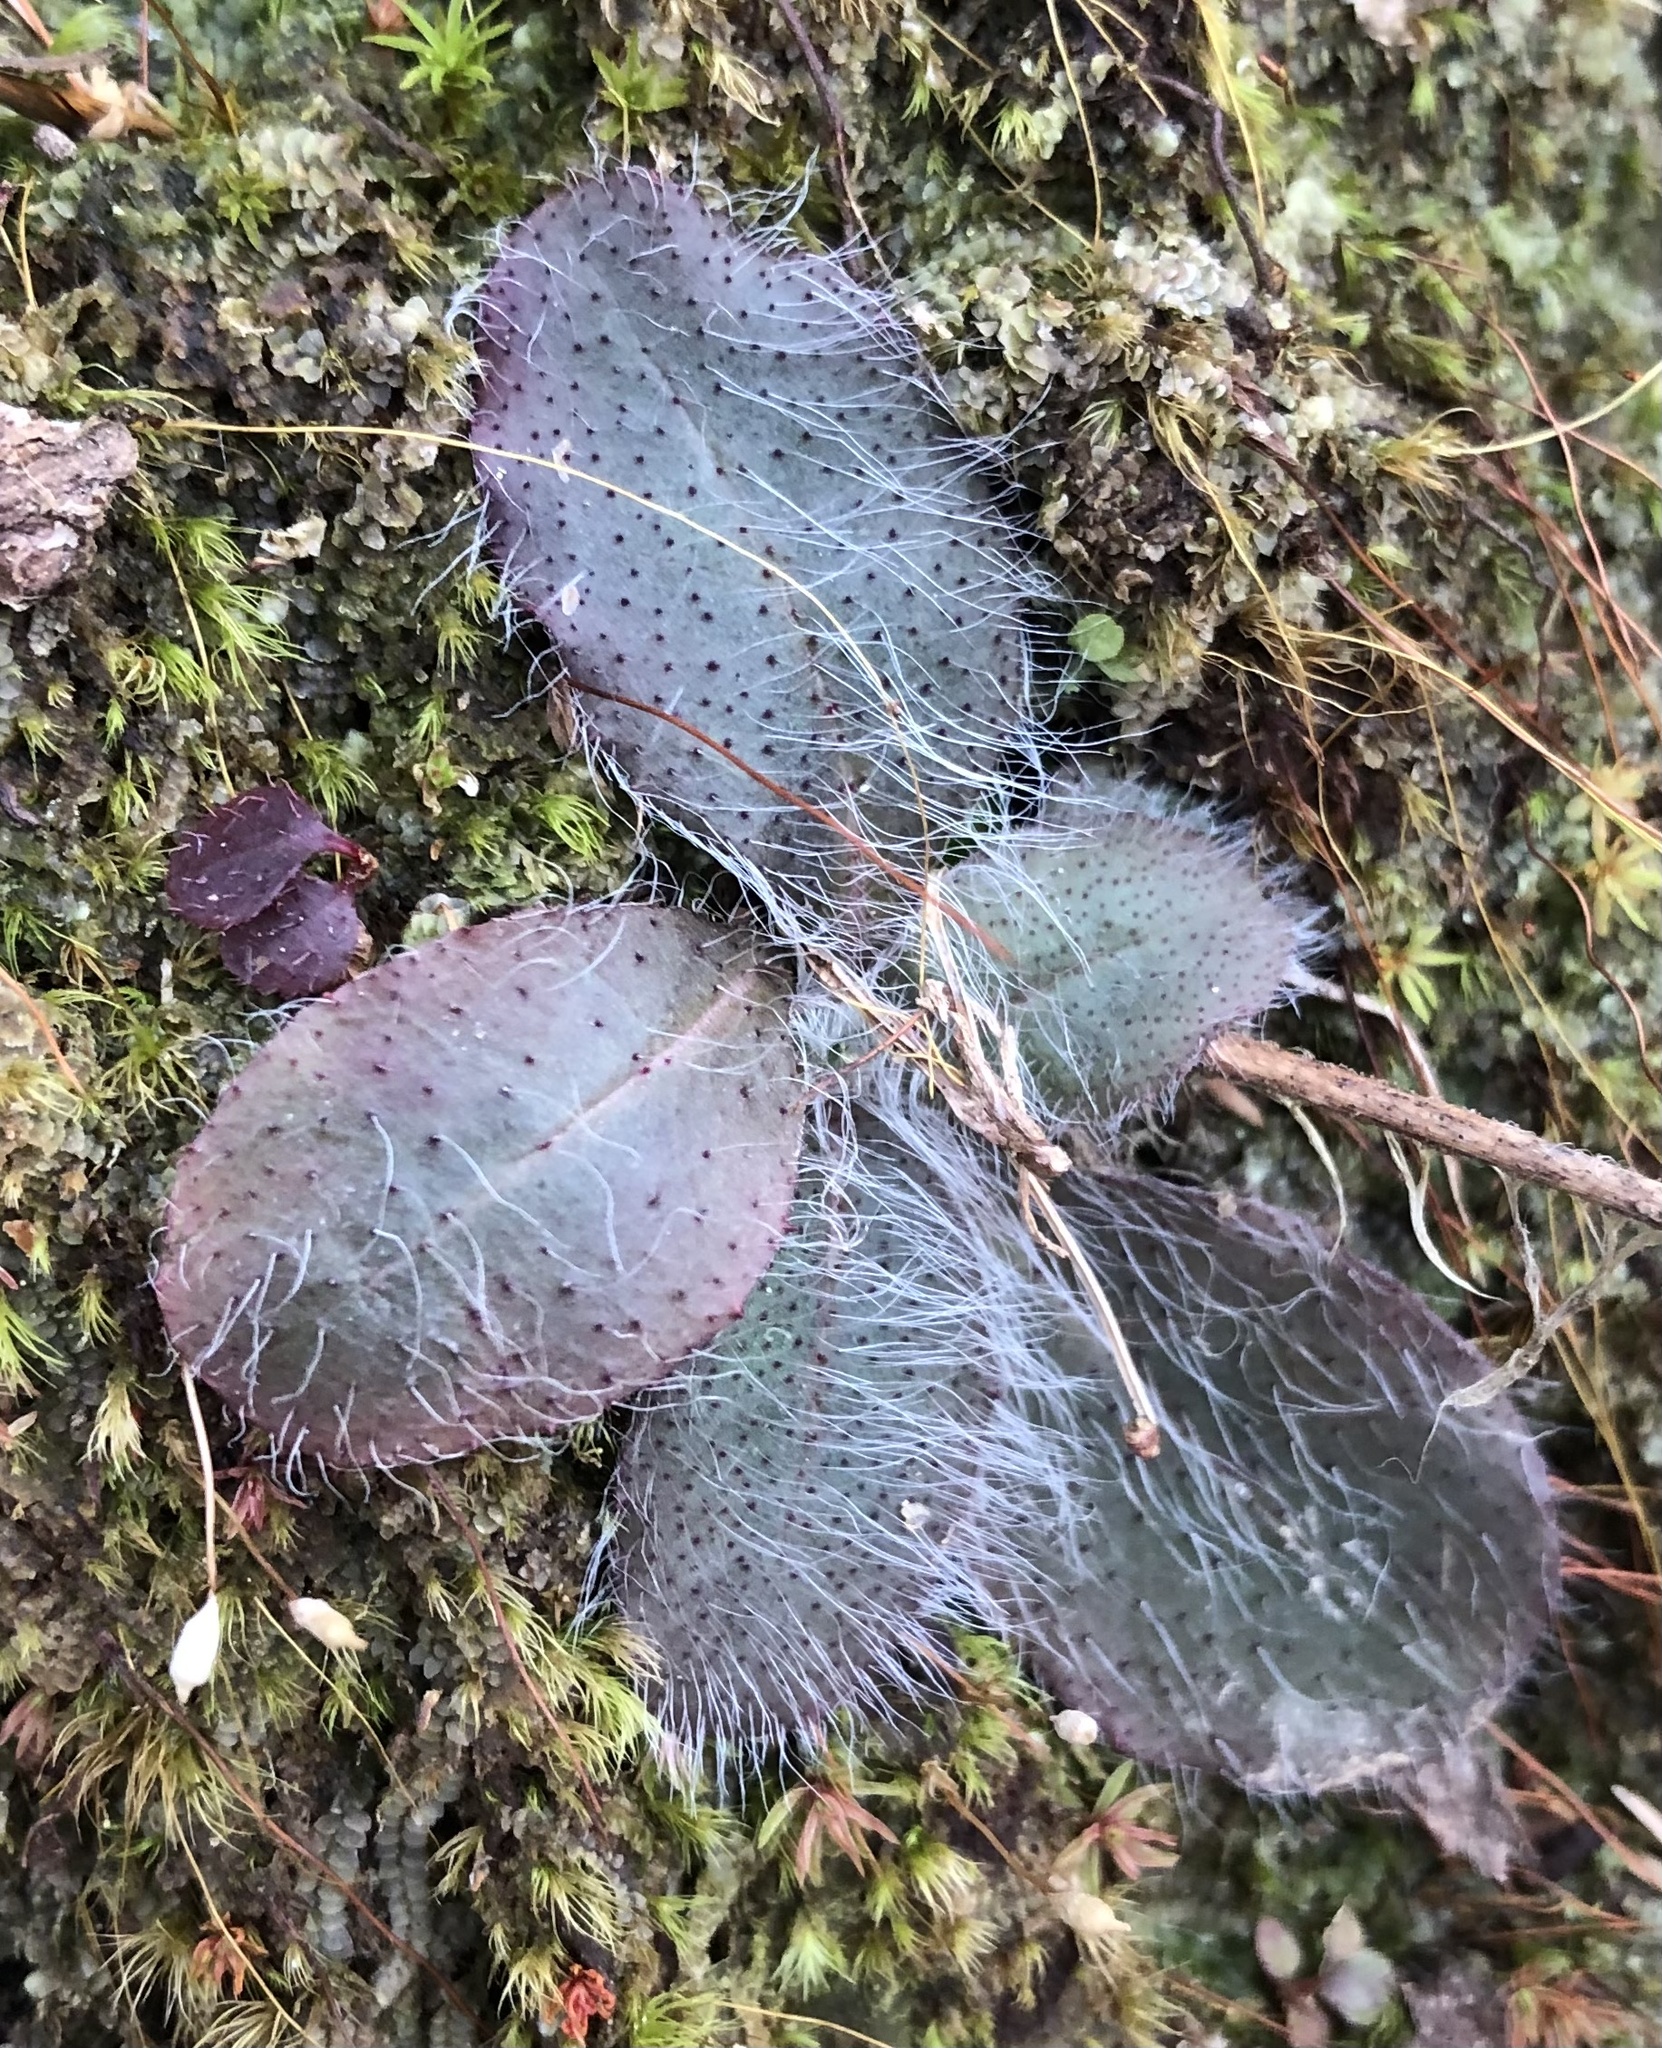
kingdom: Plantae
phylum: Tracheophyta
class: Magnoliopsida
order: Asterales
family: Asteraceae
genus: Hieracium
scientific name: Hieracium gronovii
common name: Beaked hawkweed
